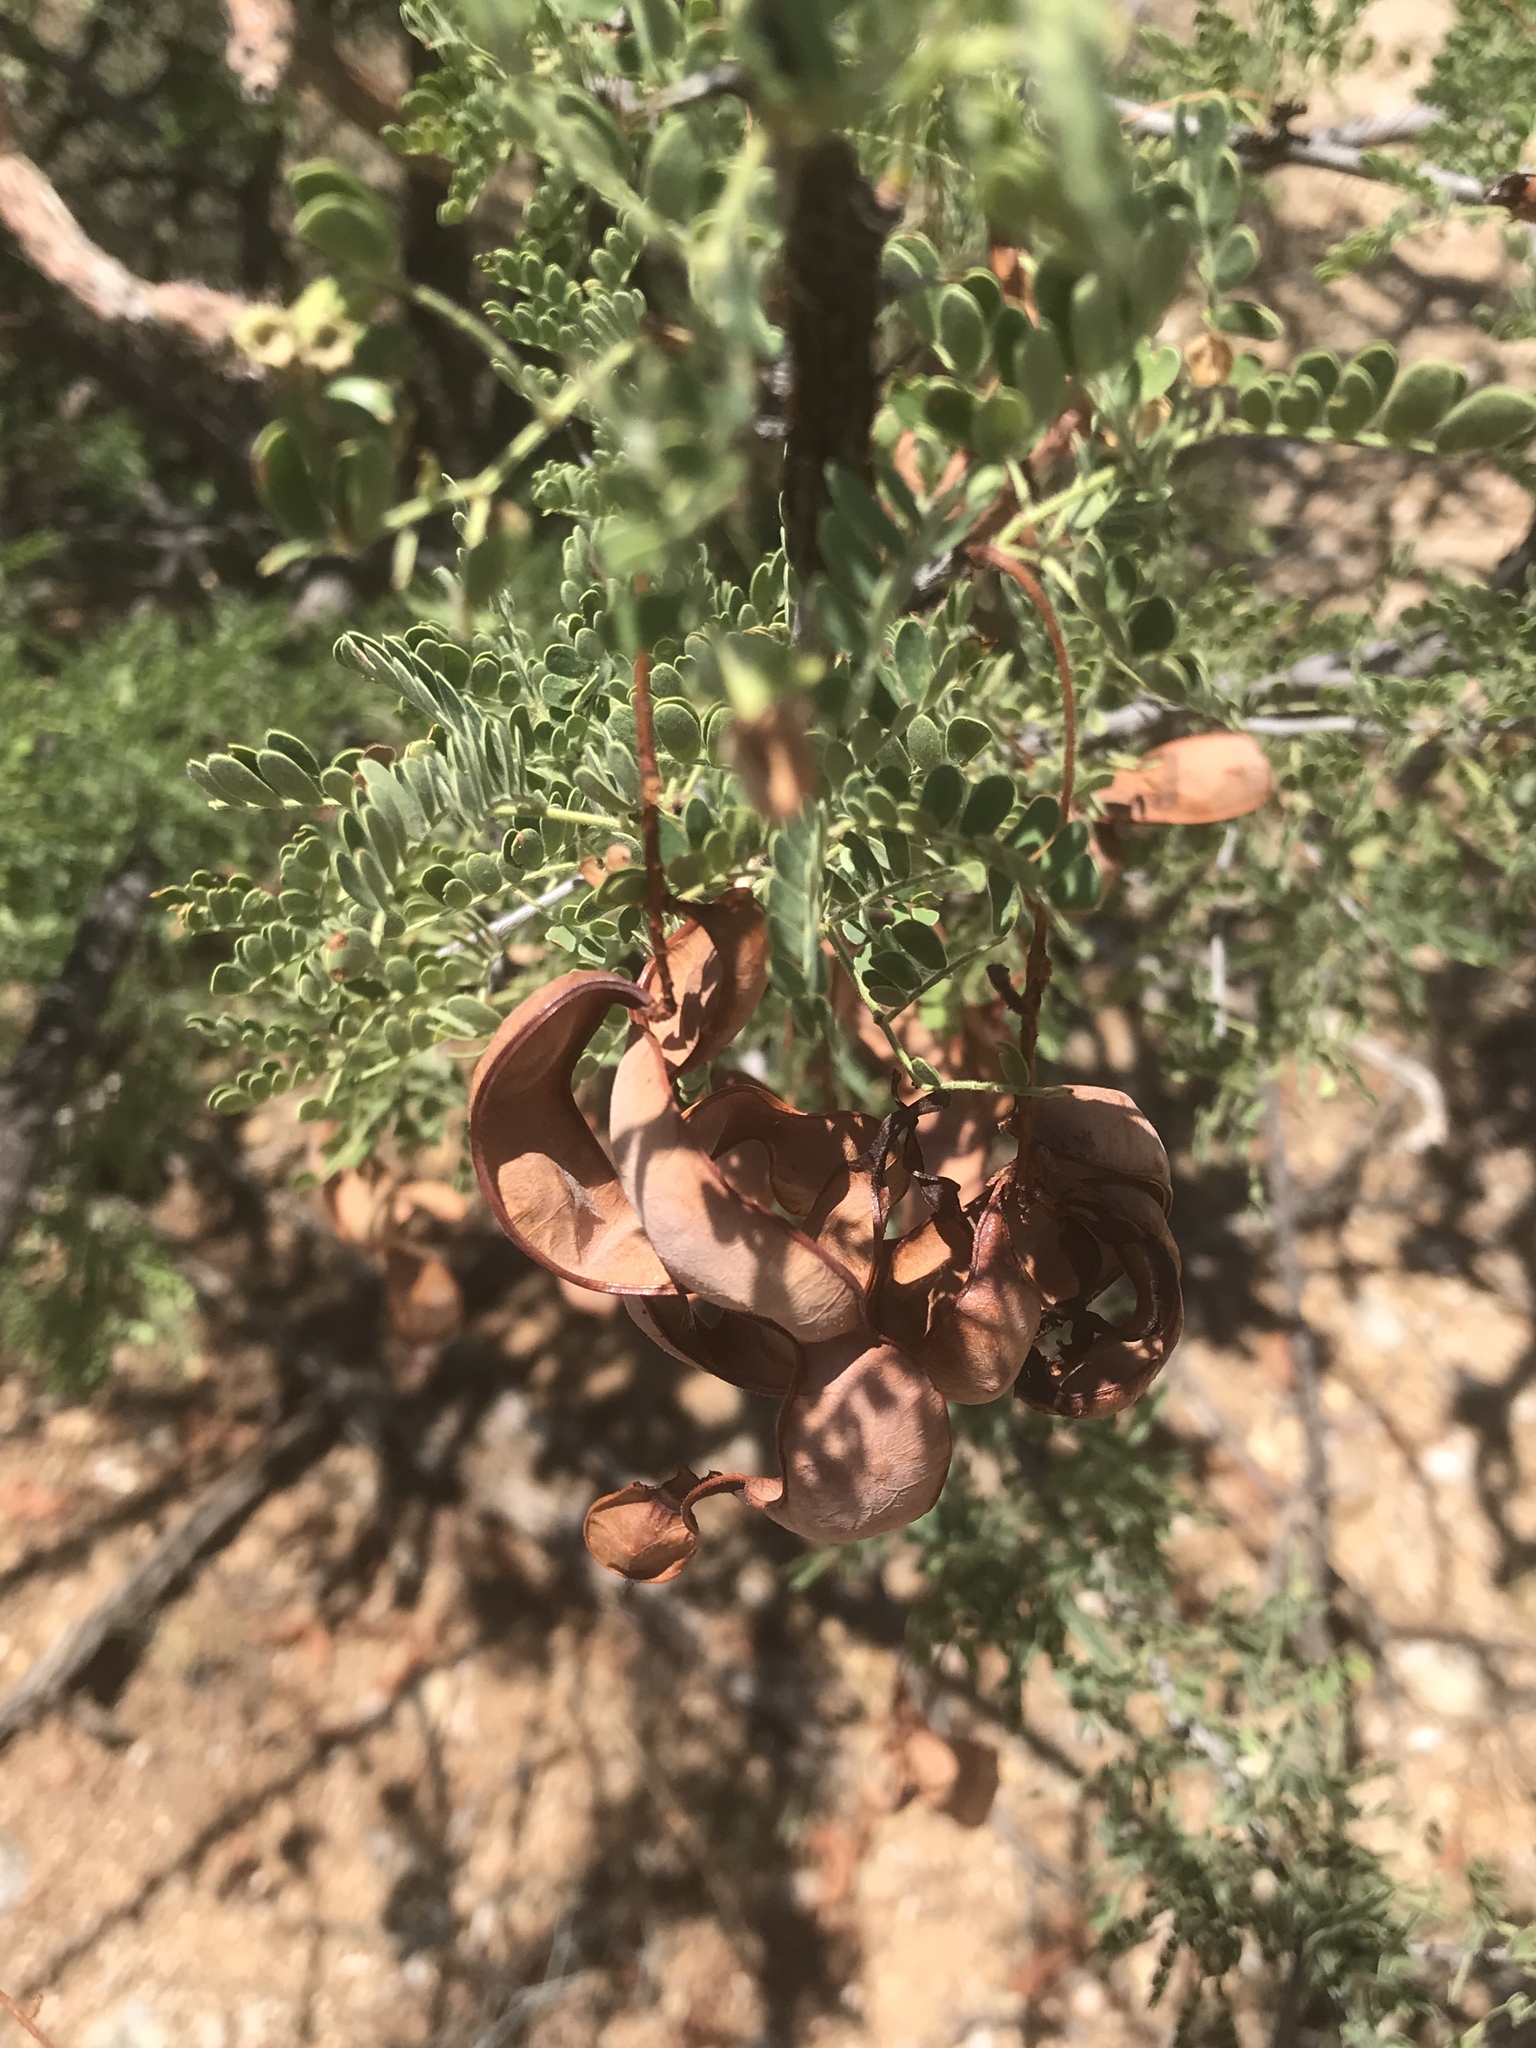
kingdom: Plantae
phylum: Tracheophyta
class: Magnoliopsida
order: Fabales
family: Fabaceae
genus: Senegalia
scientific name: Senegalia greggii
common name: Texas-mimosa
